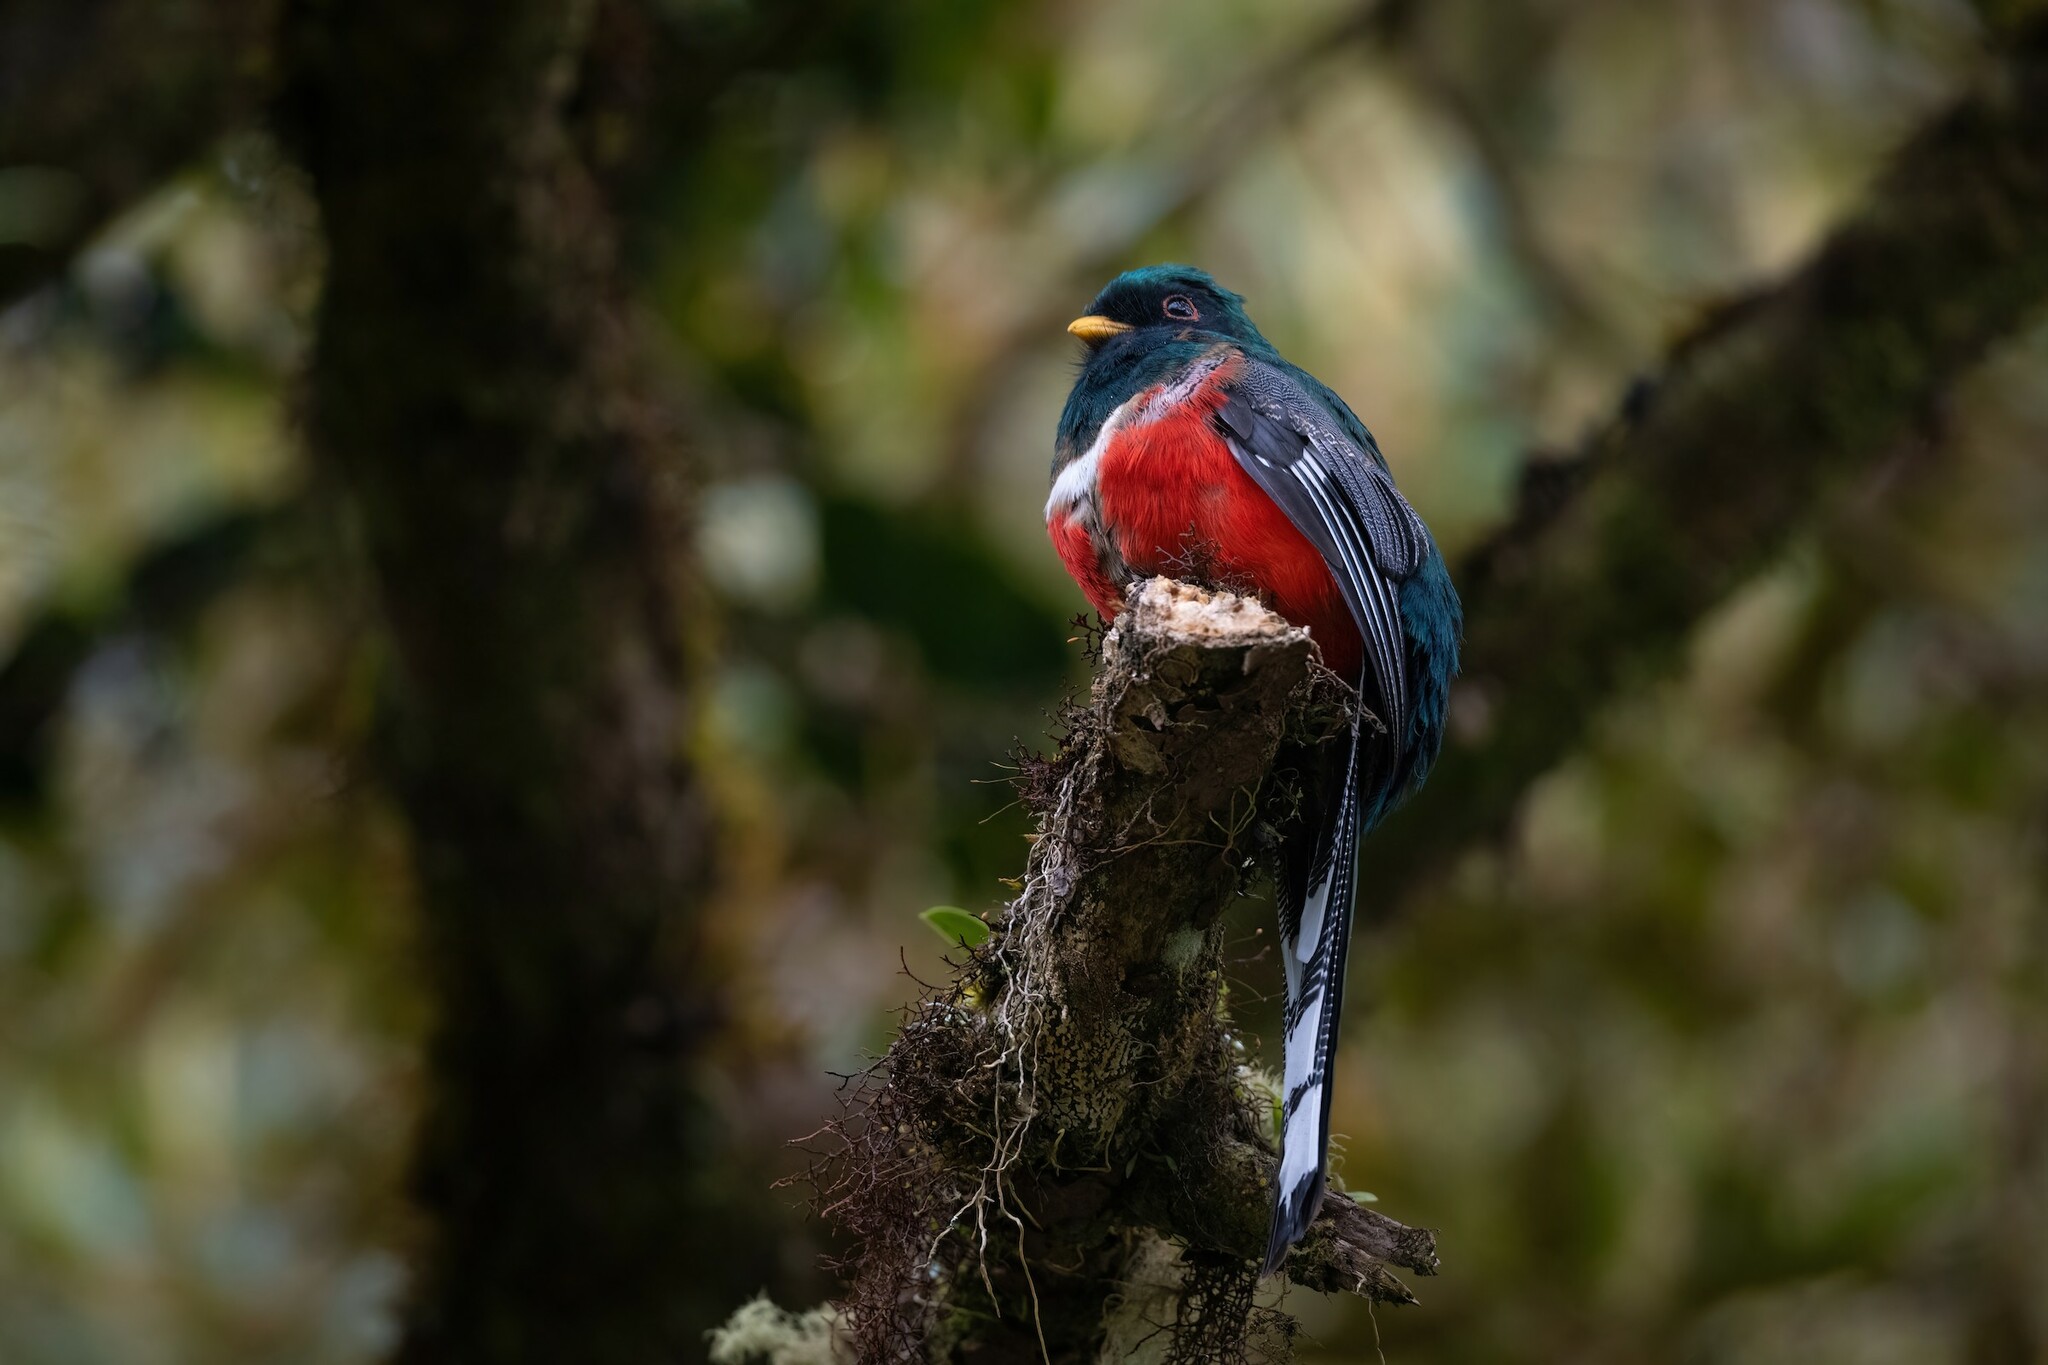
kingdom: Animalia
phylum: Chordata
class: Aves
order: Trogoniformes
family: Trogonidae
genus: Trogon
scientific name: Trogon personatus
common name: Masked trogon
